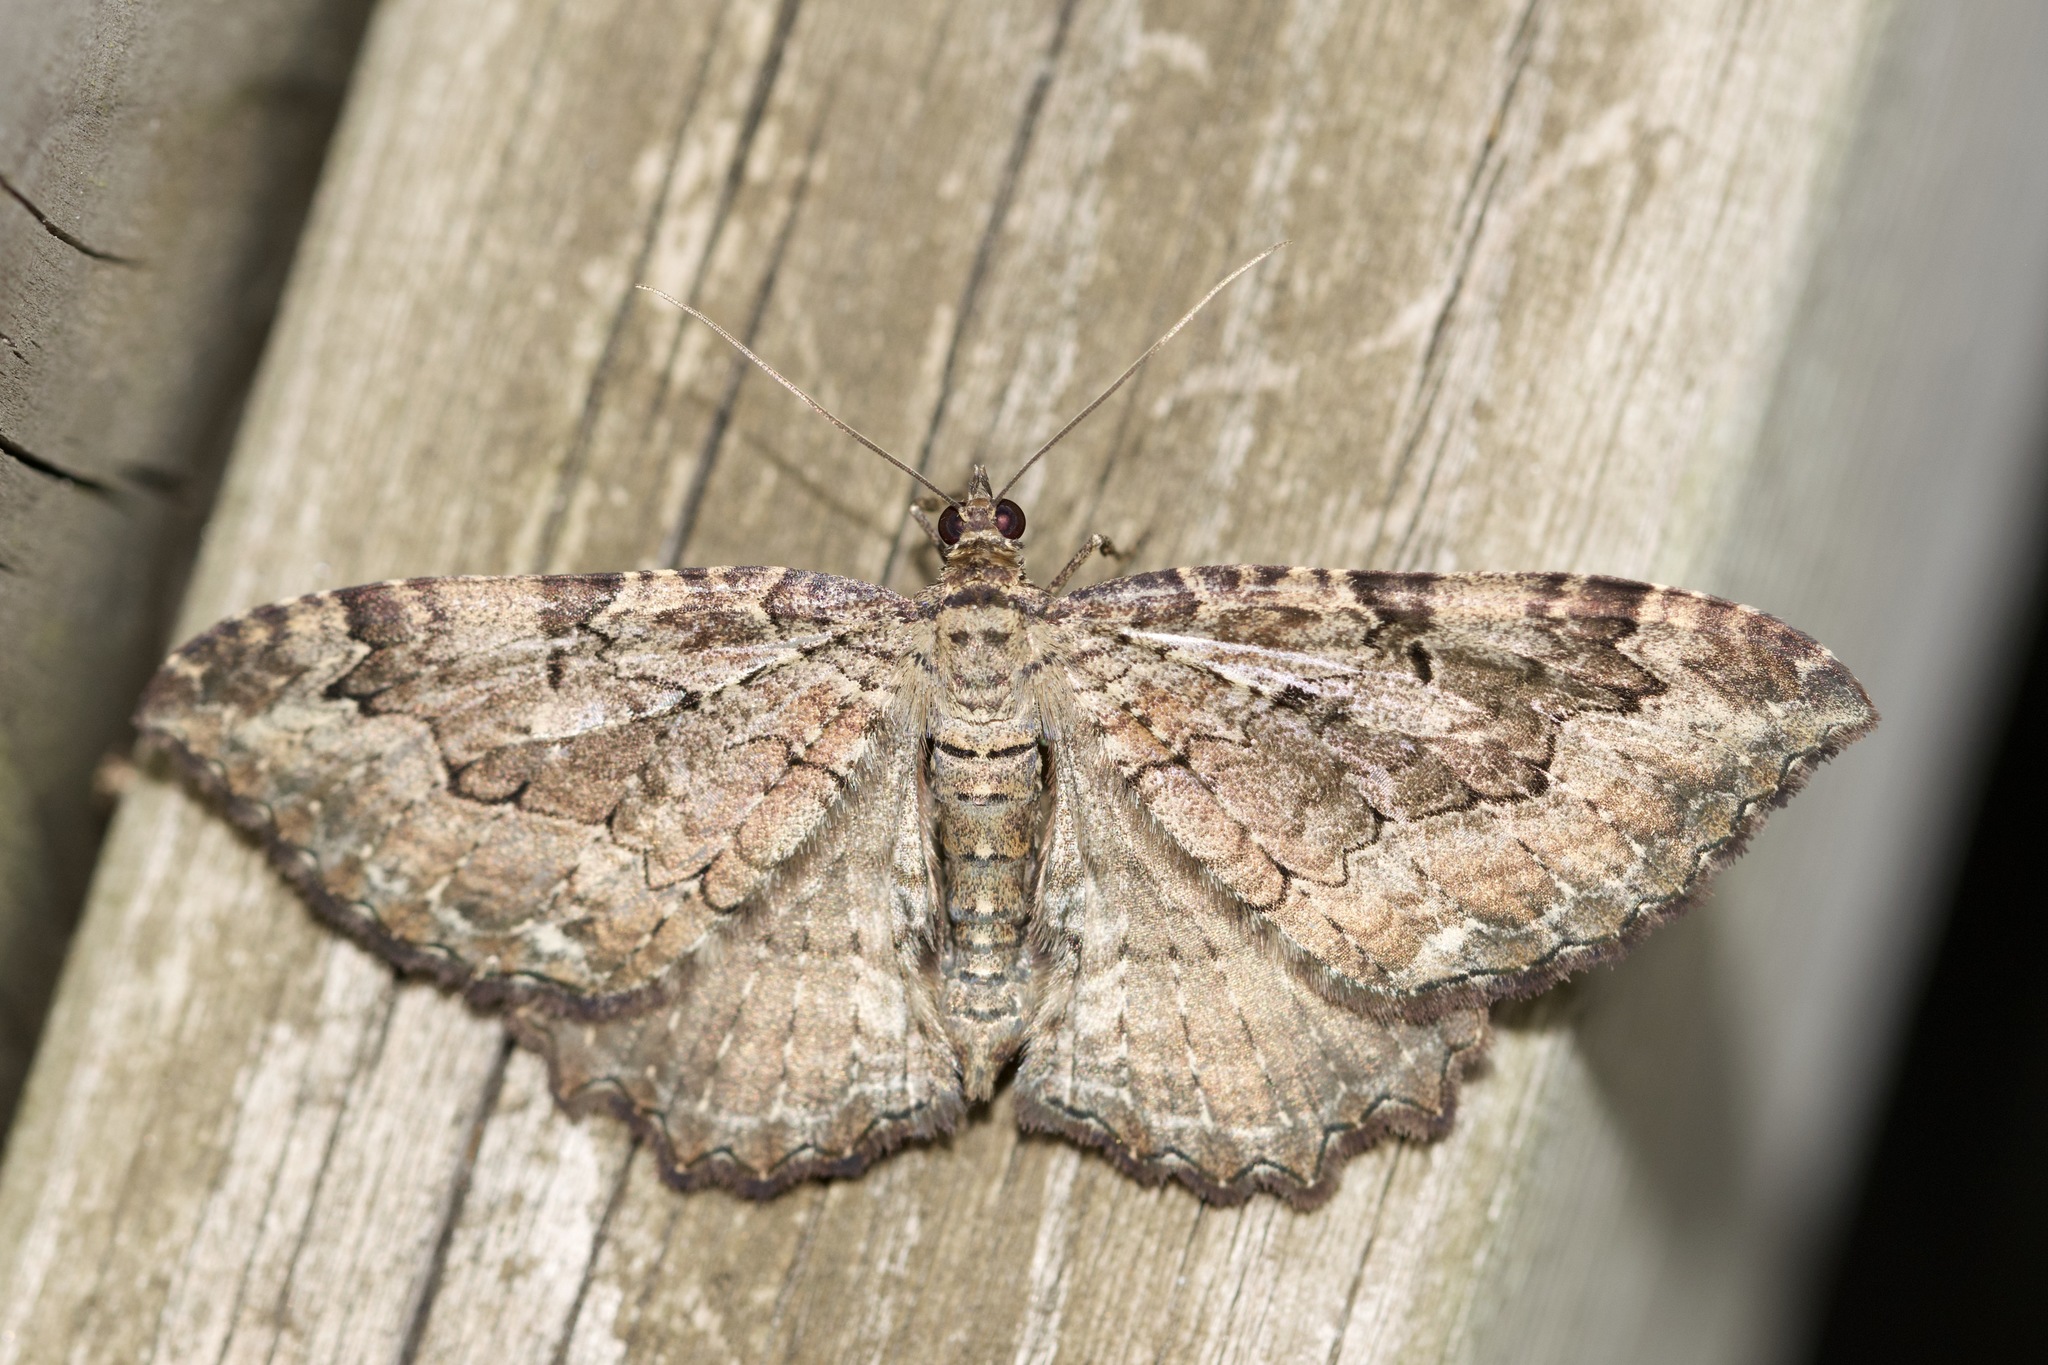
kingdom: Animalia
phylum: Arthropoda
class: Insecta
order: Lepidoptera
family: Geometridae
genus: Rheumaptera
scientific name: Rheumaptera
